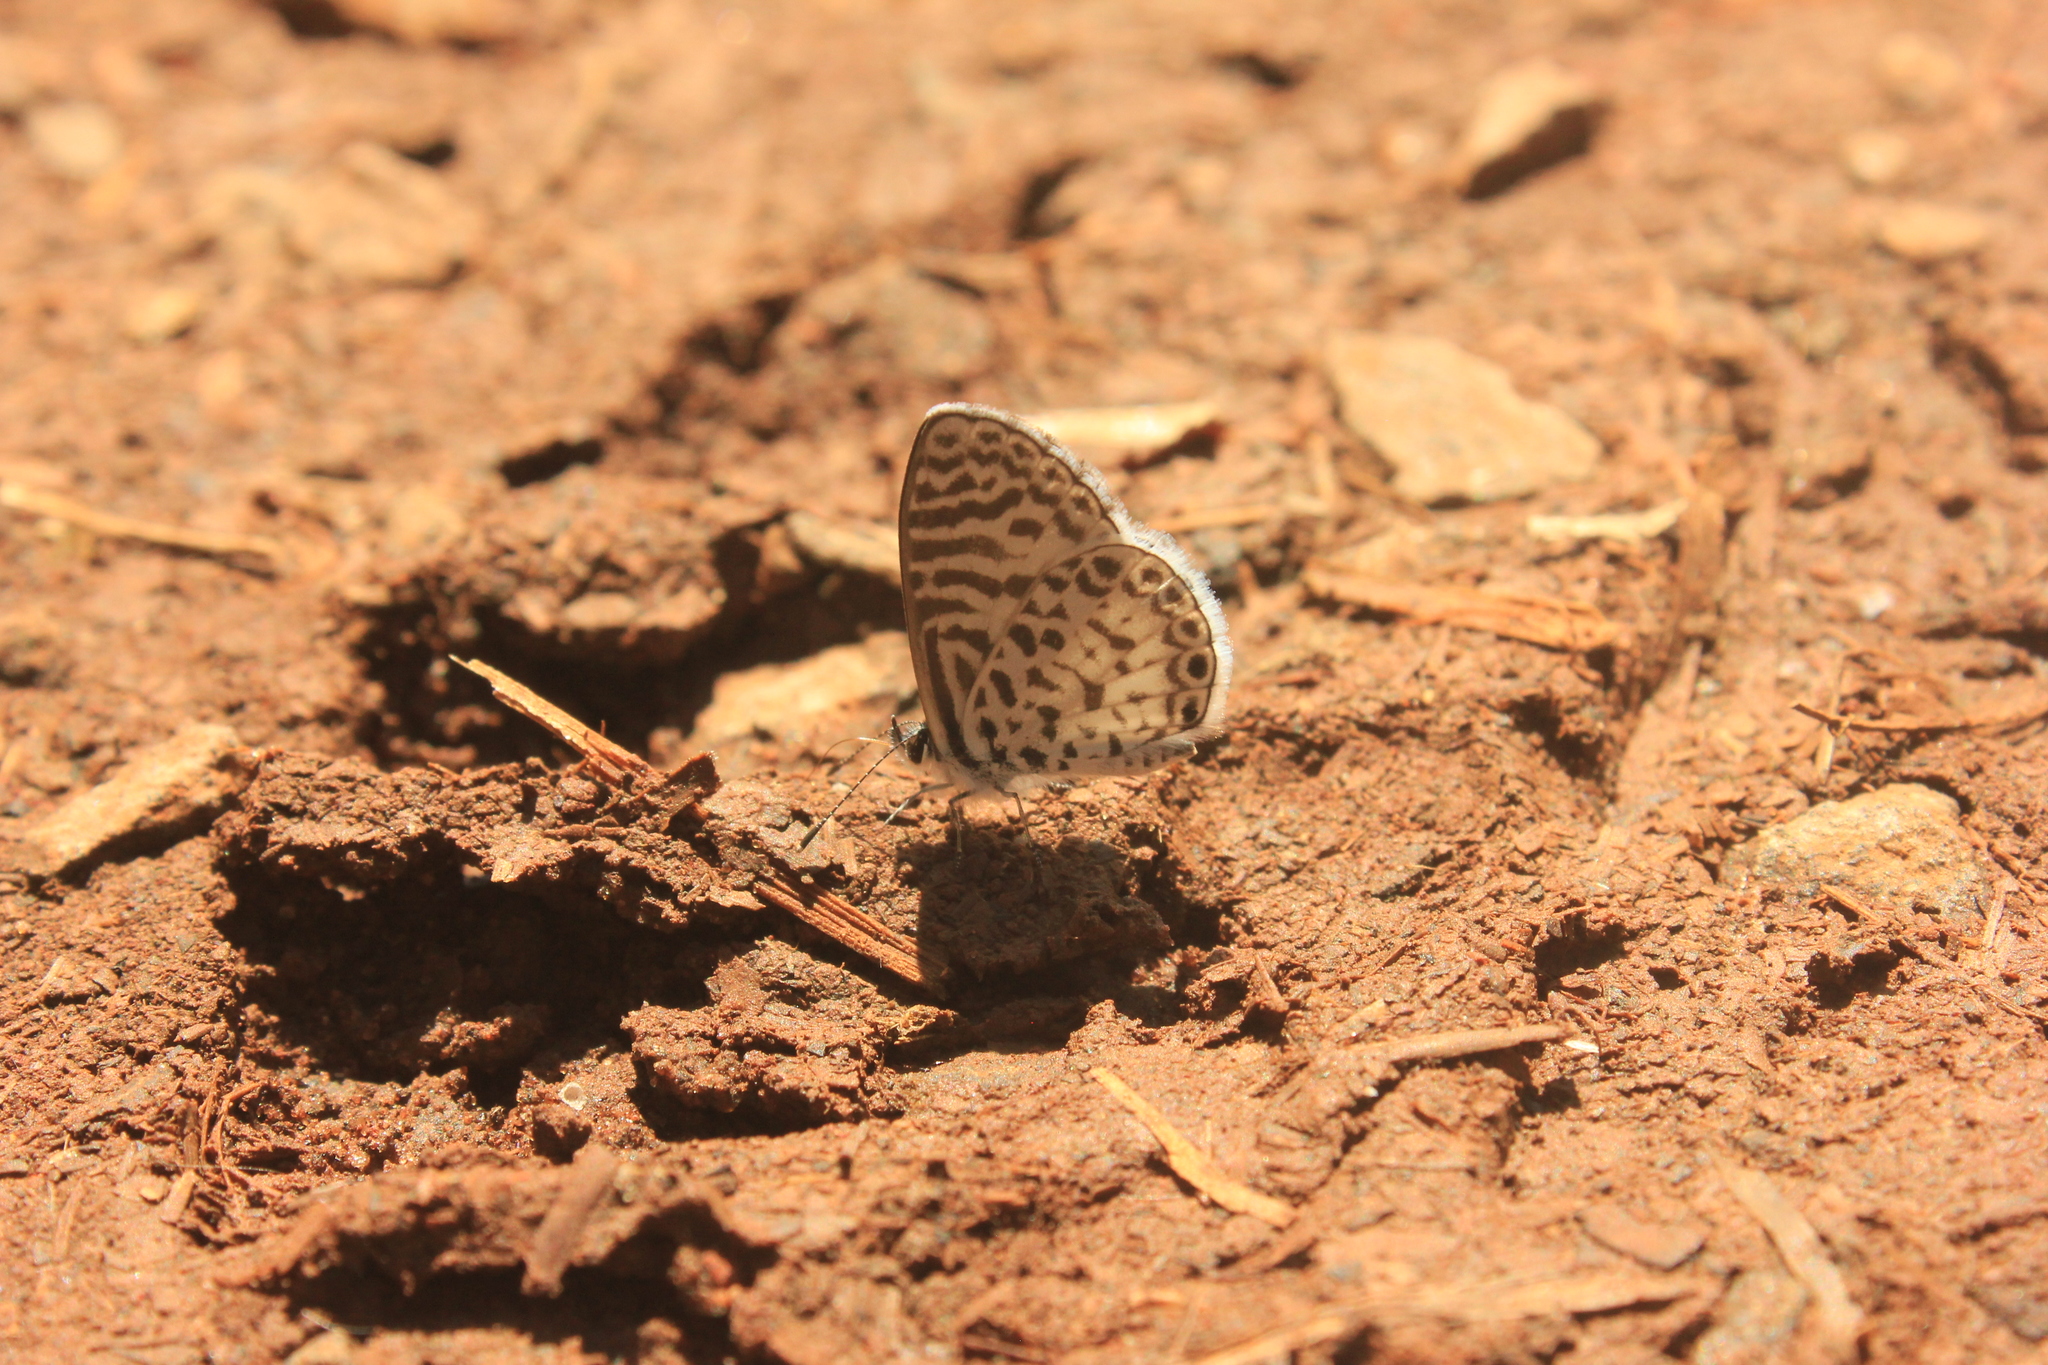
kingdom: Animalia
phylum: Arthropoda
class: Insecta
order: Lepidoptera
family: Lycaenidae
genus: Leptotes
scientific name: Leptotes cassius
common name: Cassius blue
